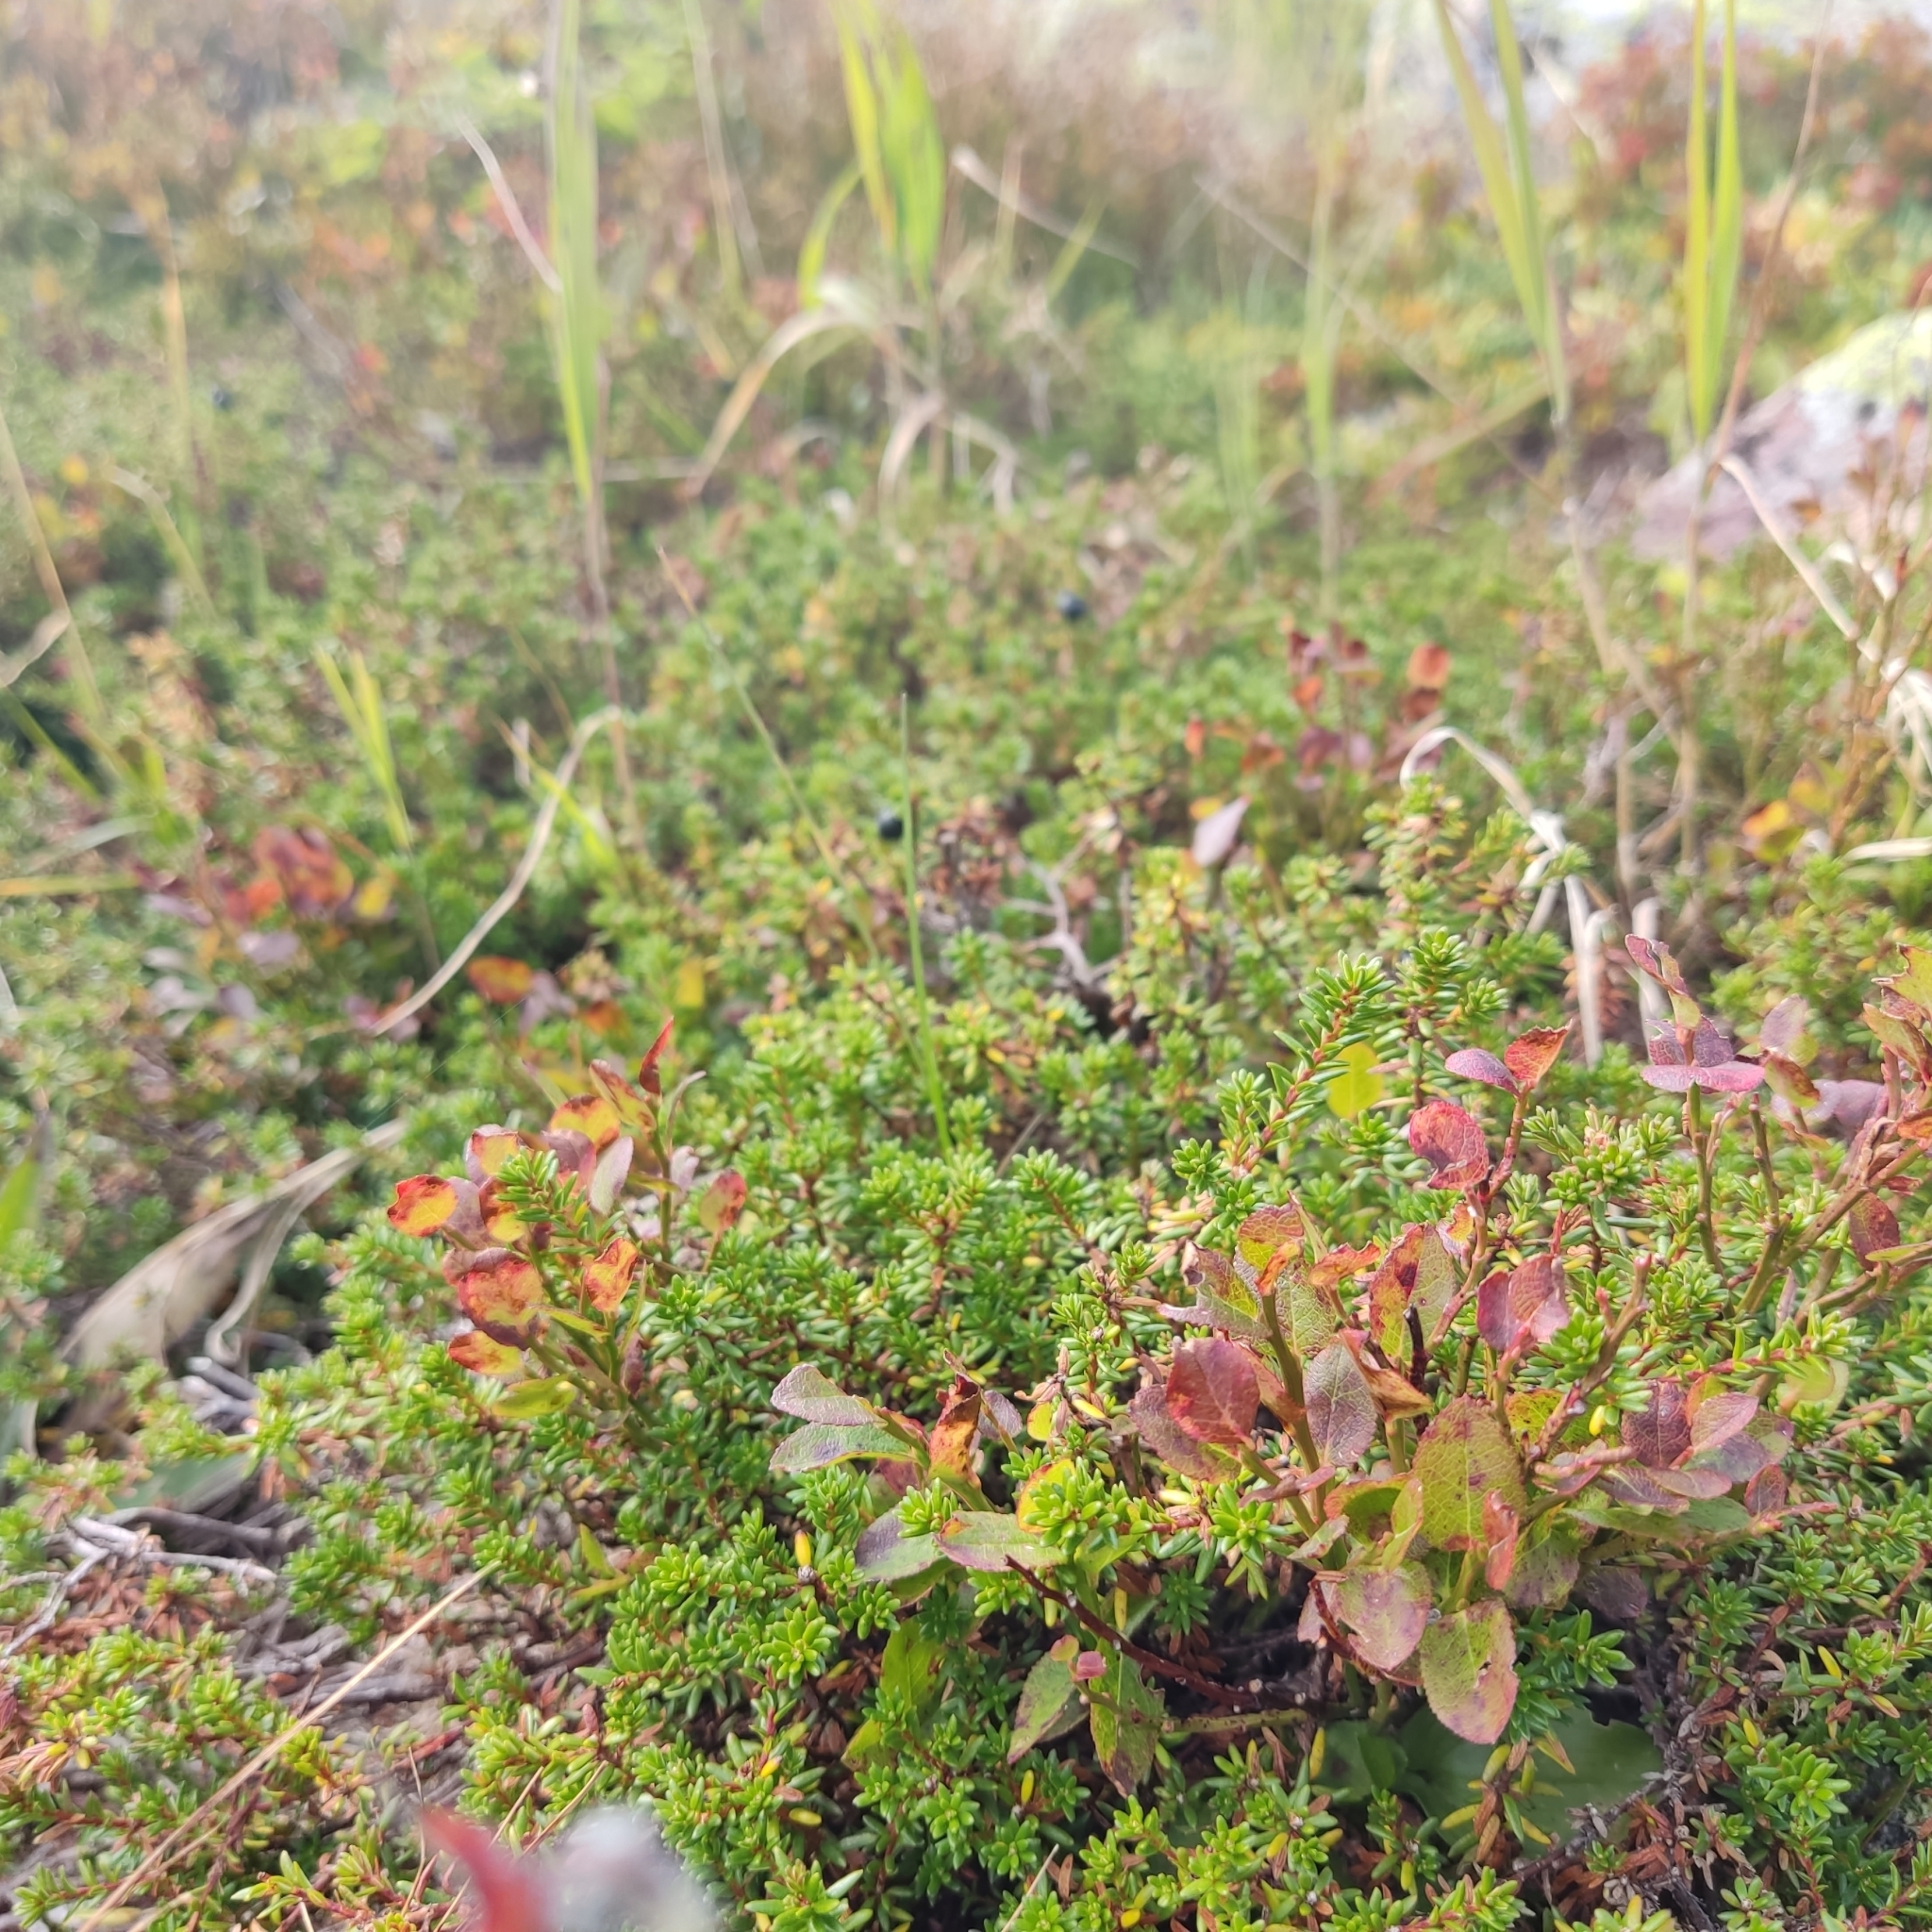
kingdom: Plantae
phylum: Tracheophyta
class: Magnoliopsida
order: Ericales
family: Ericaceae
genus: Empetrum
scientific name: Empetrum nigrum
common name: Black crowberry
